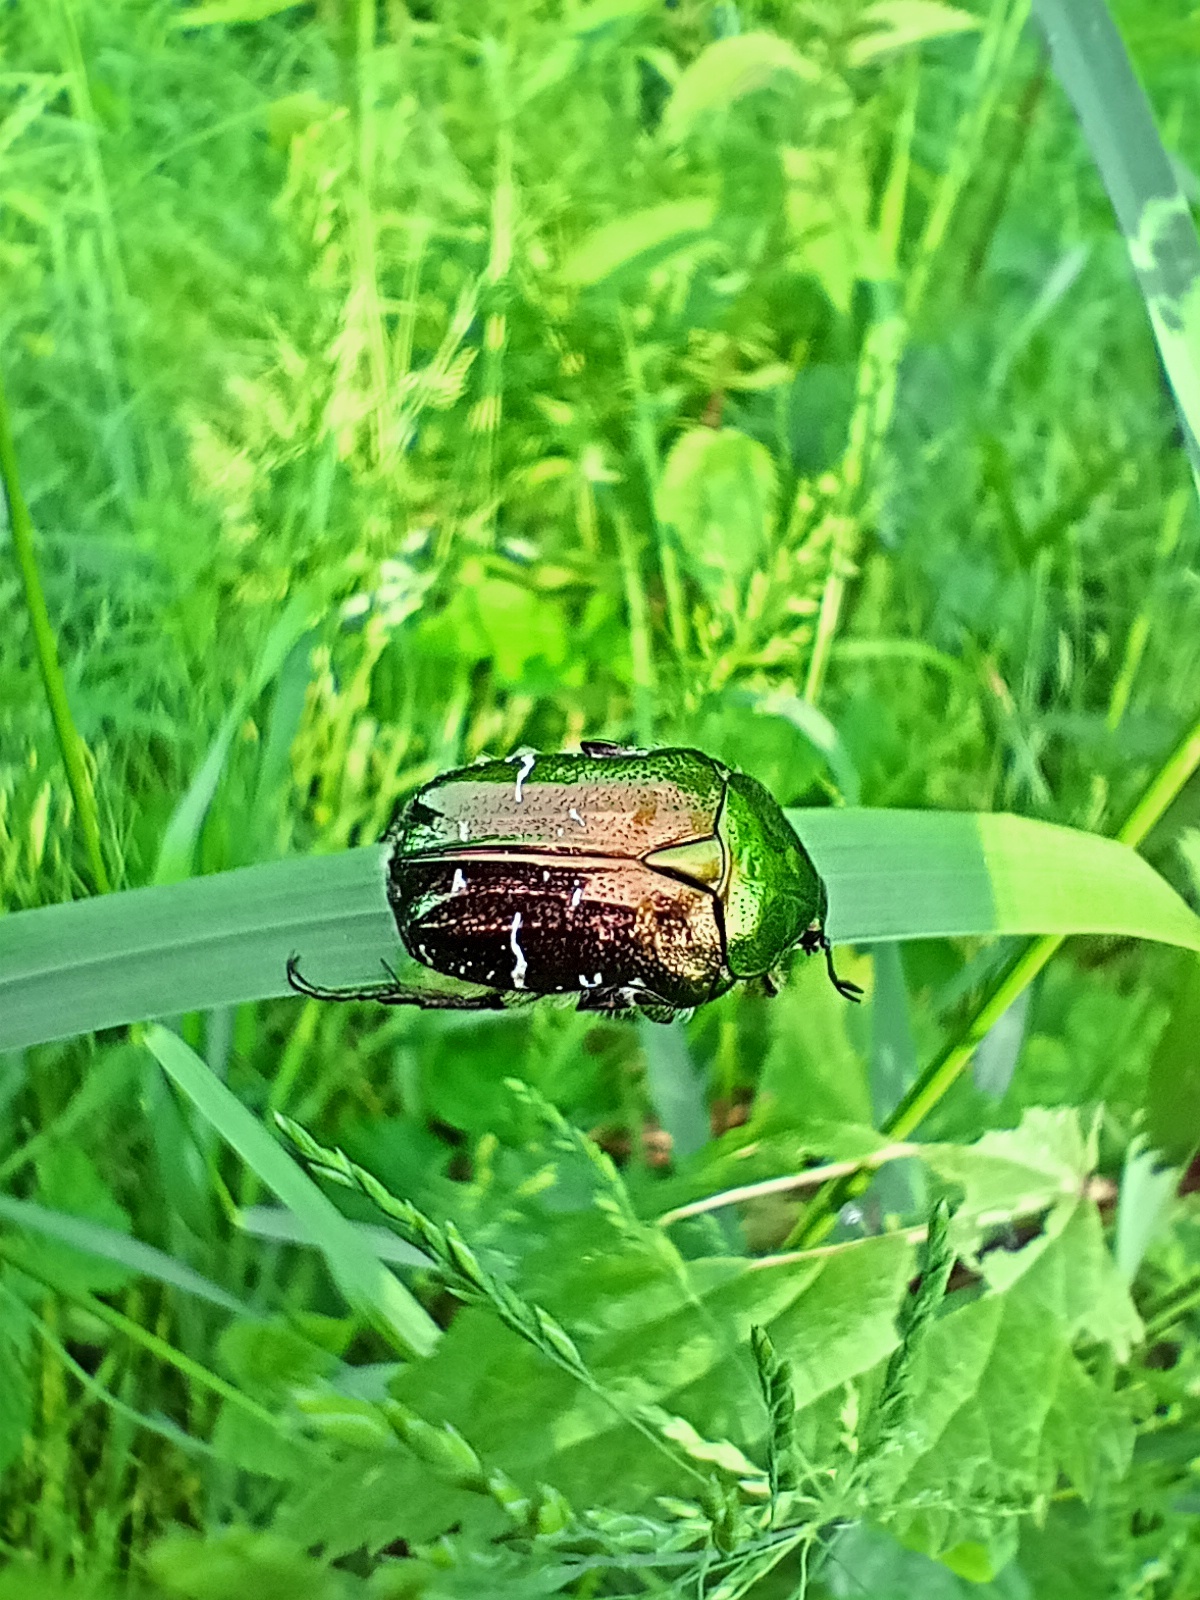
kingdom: Animalia
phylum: Arthropoda
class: Insecta
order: Coleoptera
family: Scarabaeidae
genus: Cetonia
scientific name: Cetonia aurata
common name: Rose chafer
